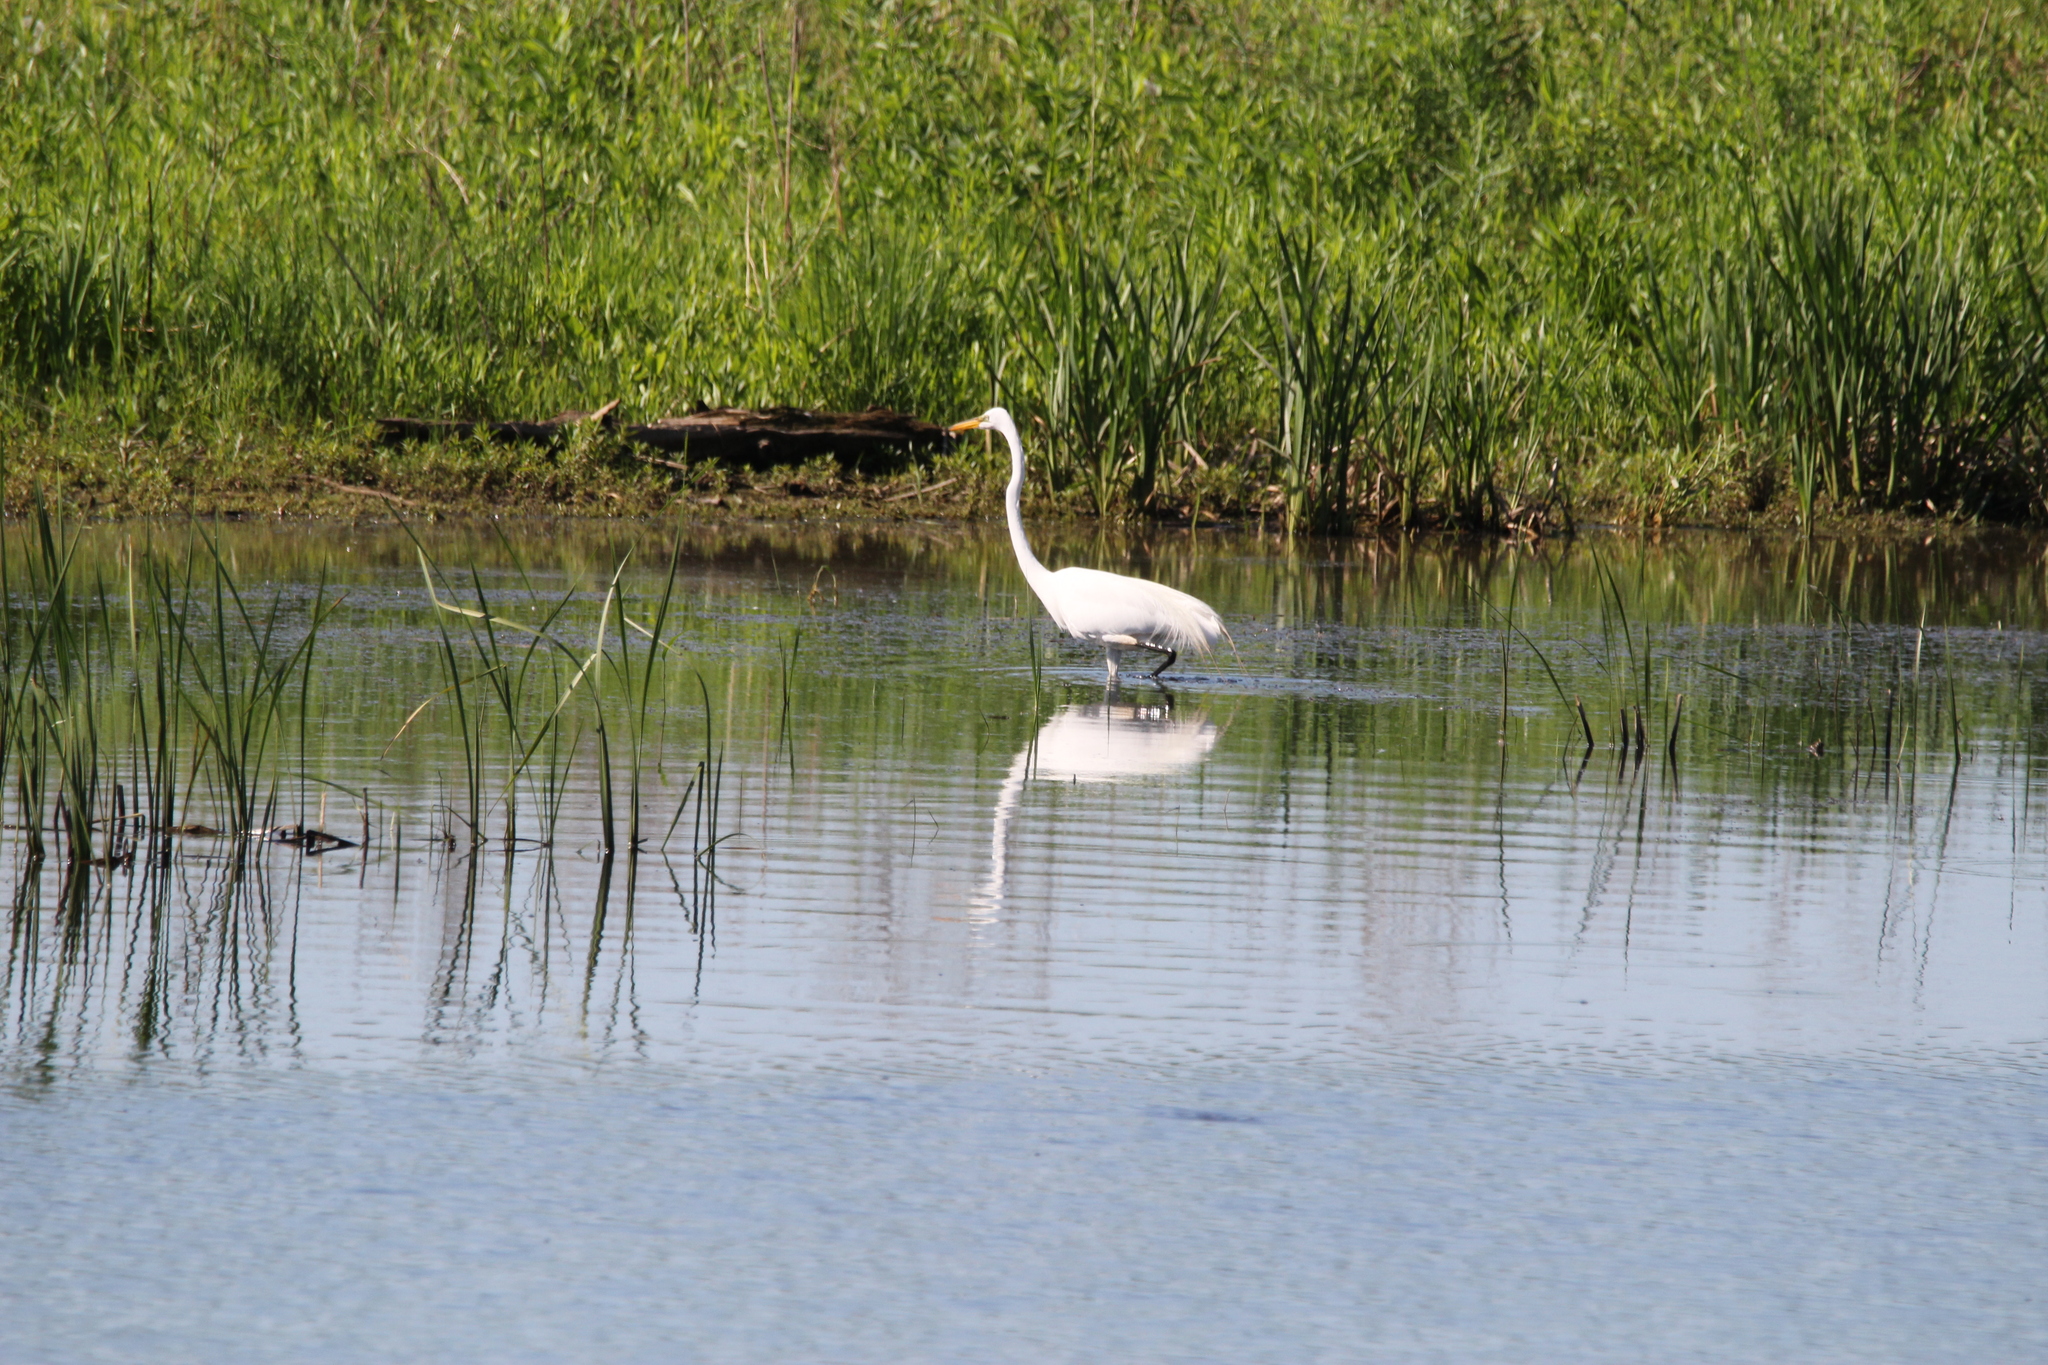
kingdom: Animalia
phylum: Chordata
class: Aves
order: Pelecaniformes
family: Ardeidae
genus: Ardea
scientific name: Ardea alba
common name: Great egret
